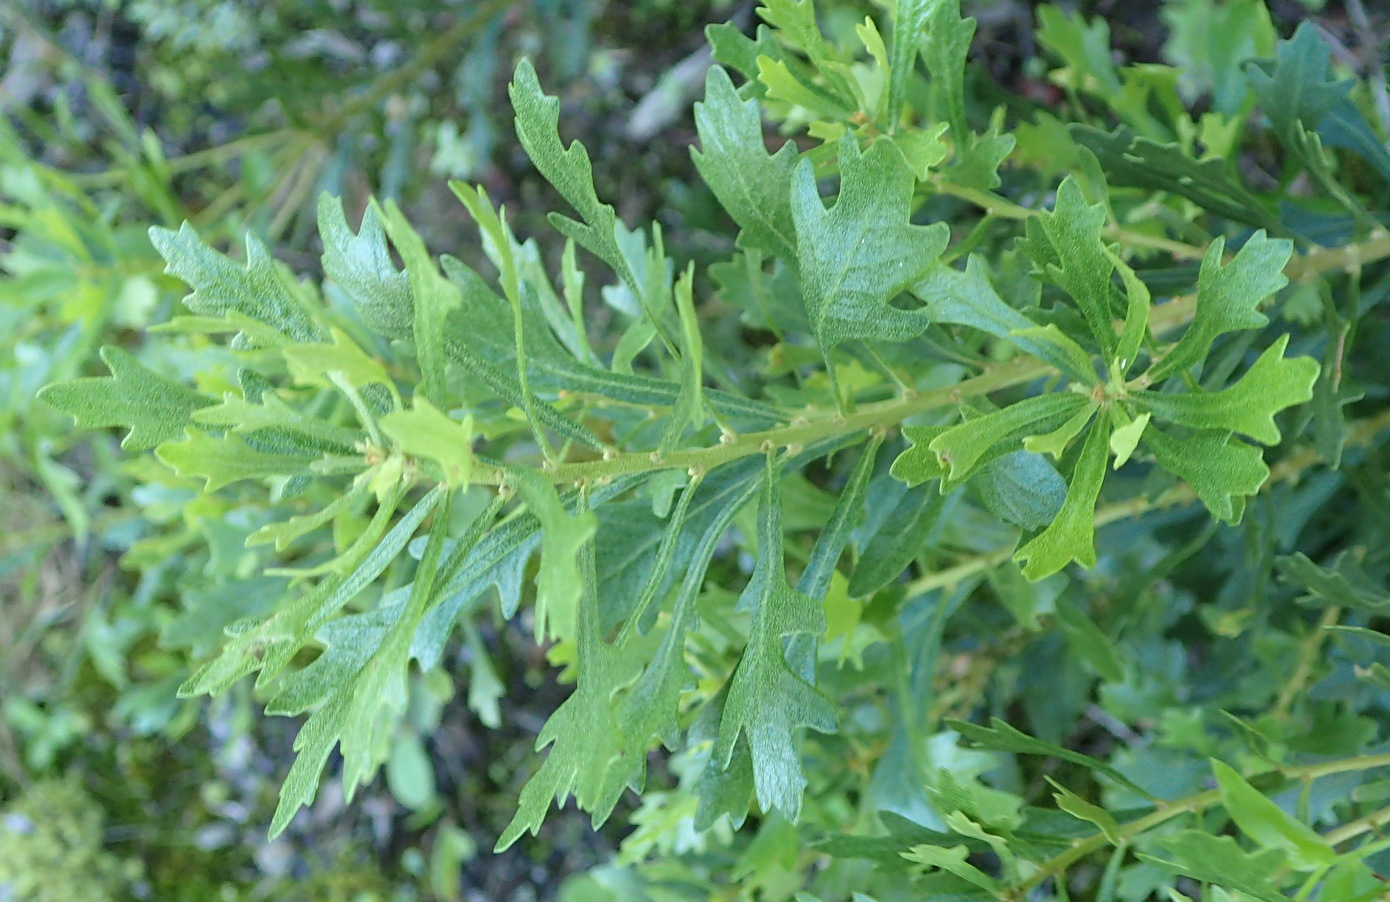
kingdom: Plantae
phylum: Tracheophyta
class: Magnoliopsida
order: Fagales
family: Myricaceae
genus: Morella
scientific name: Morella quercifolia
